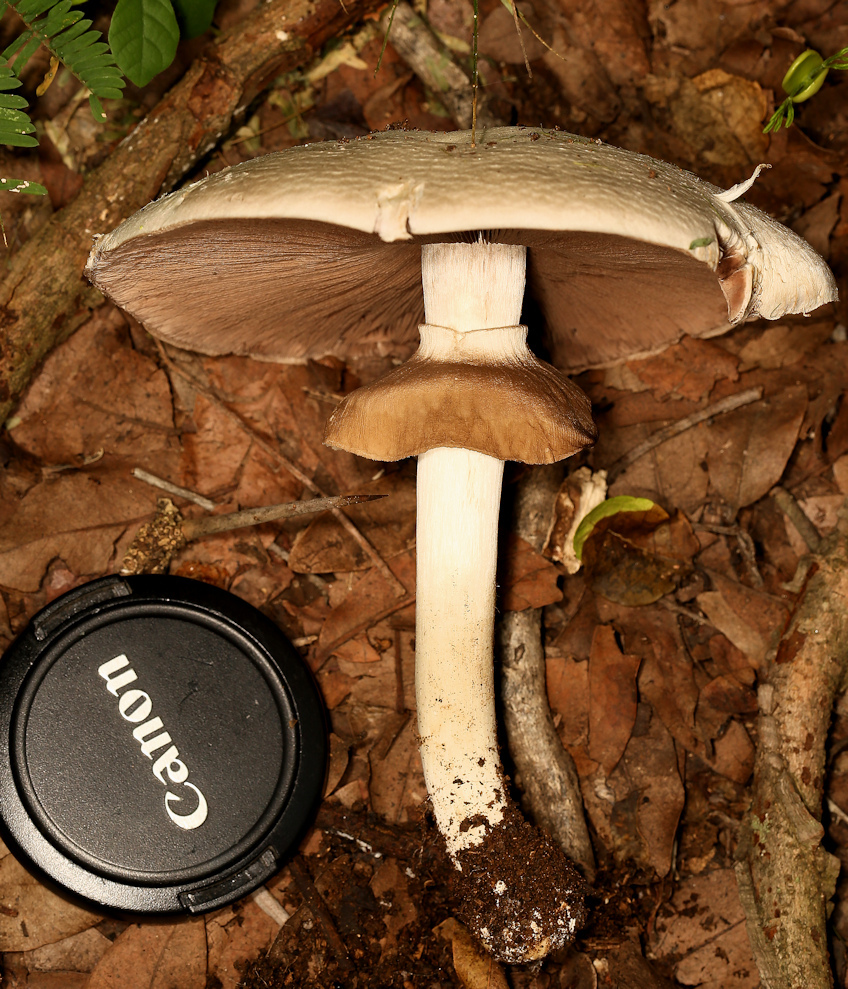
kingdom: Fungi
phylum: Basidiomycota
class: Agaricomycetes
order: Agaricales
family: Agaricaceae
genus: Agaricus
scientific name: Agaricus subrufescens
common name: Almond mushroom
